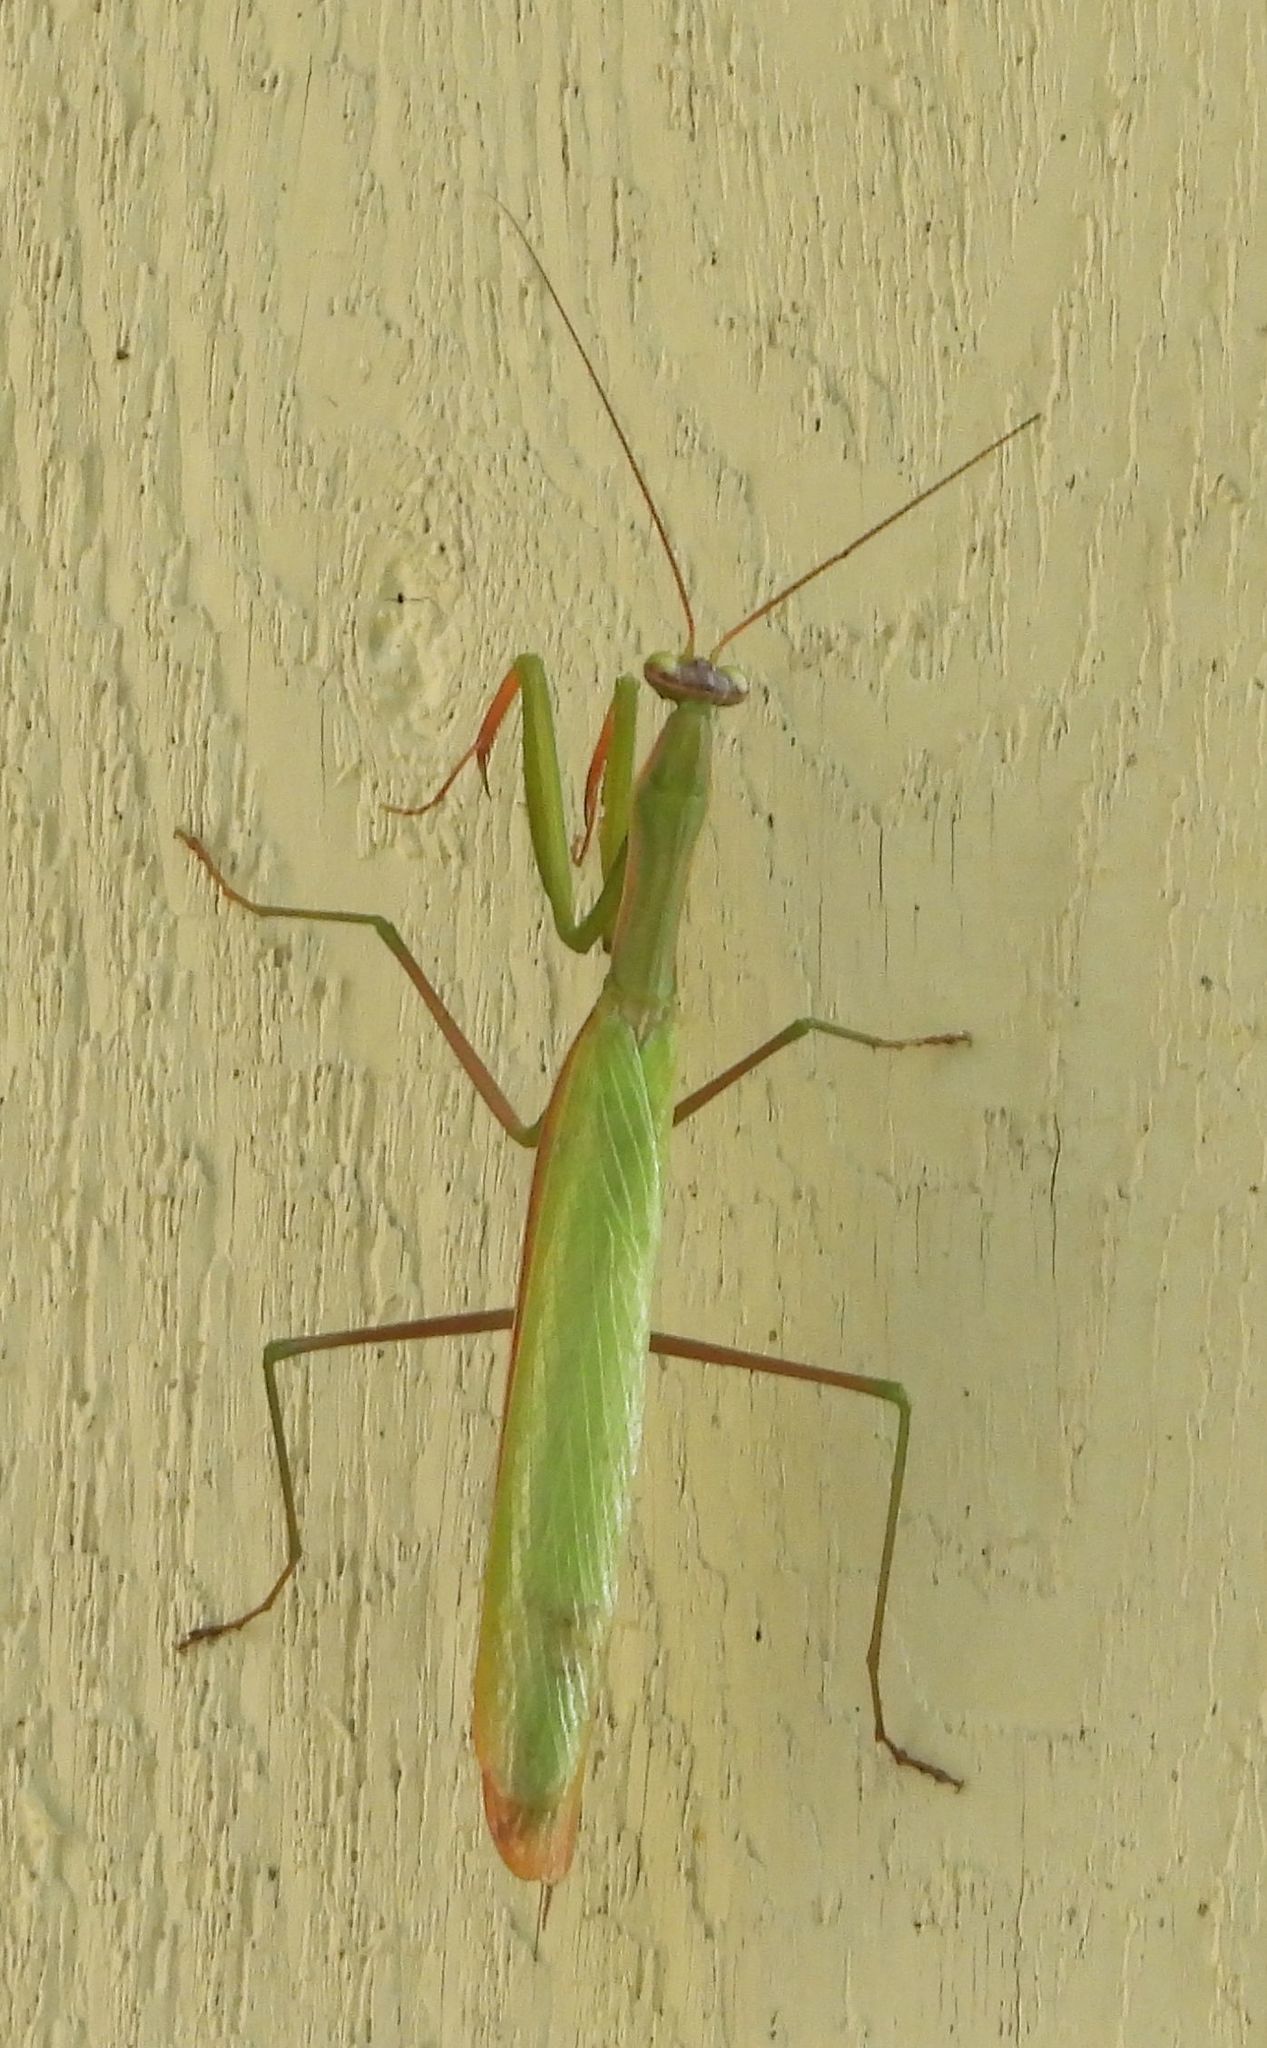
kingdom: Animalia
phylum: Arthropoda
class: Insecta
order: Mantodea
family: Mantidae
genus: Mantis
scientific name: Mantis religiosa
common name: Praying mantis
